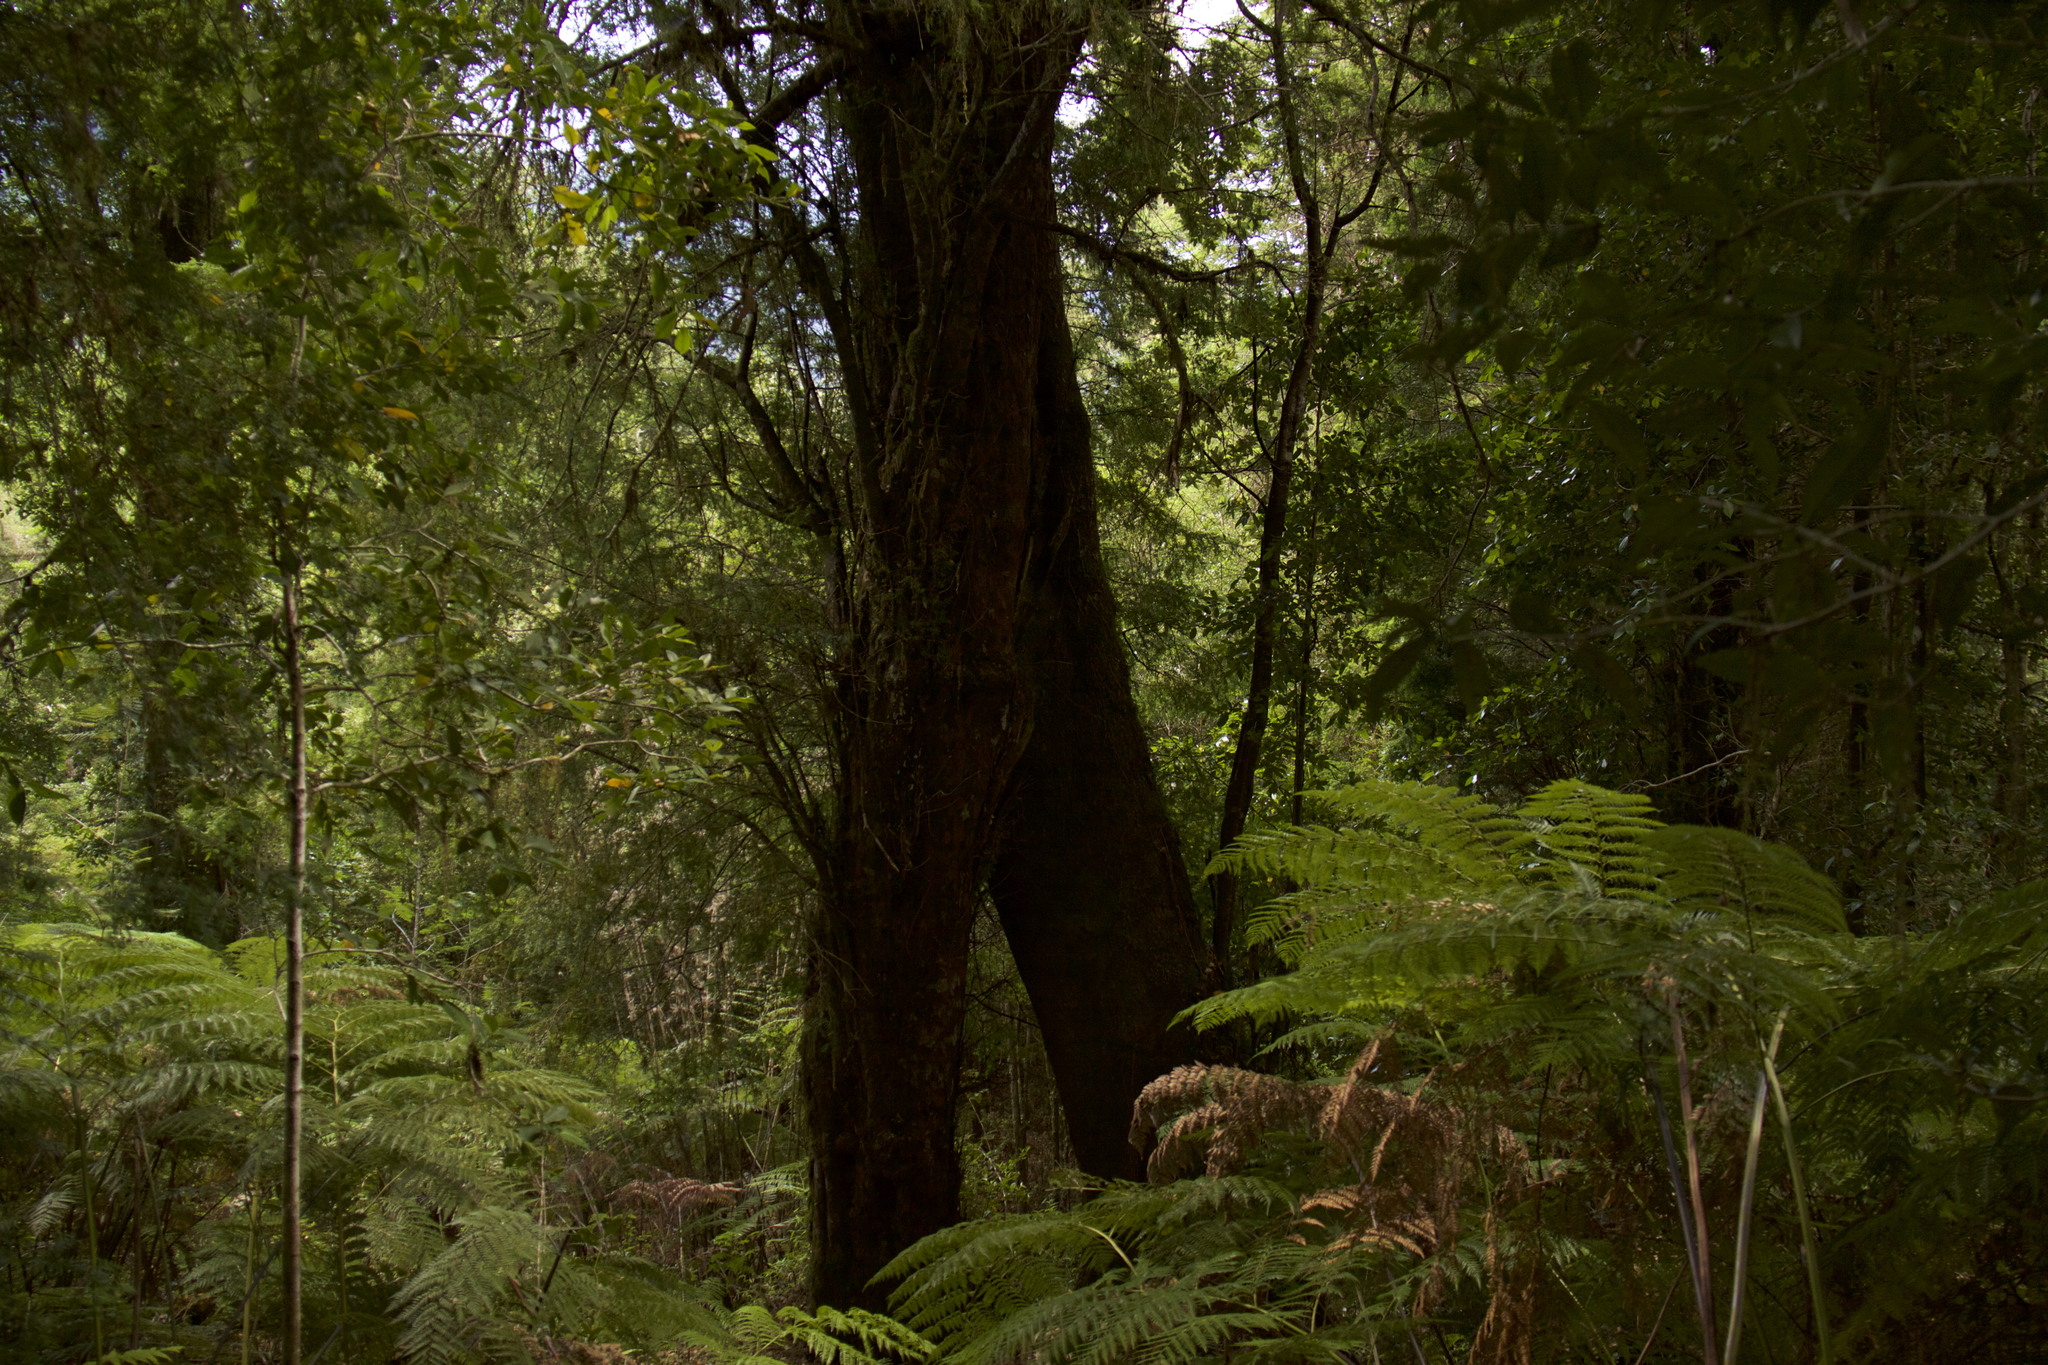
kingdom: Plantae
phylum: Tracheophyta
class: Polypodiopsida
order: Cyatheales
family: Dicksoniaceae
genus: Lophosoria
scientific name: Lophosoria quadripinnata
